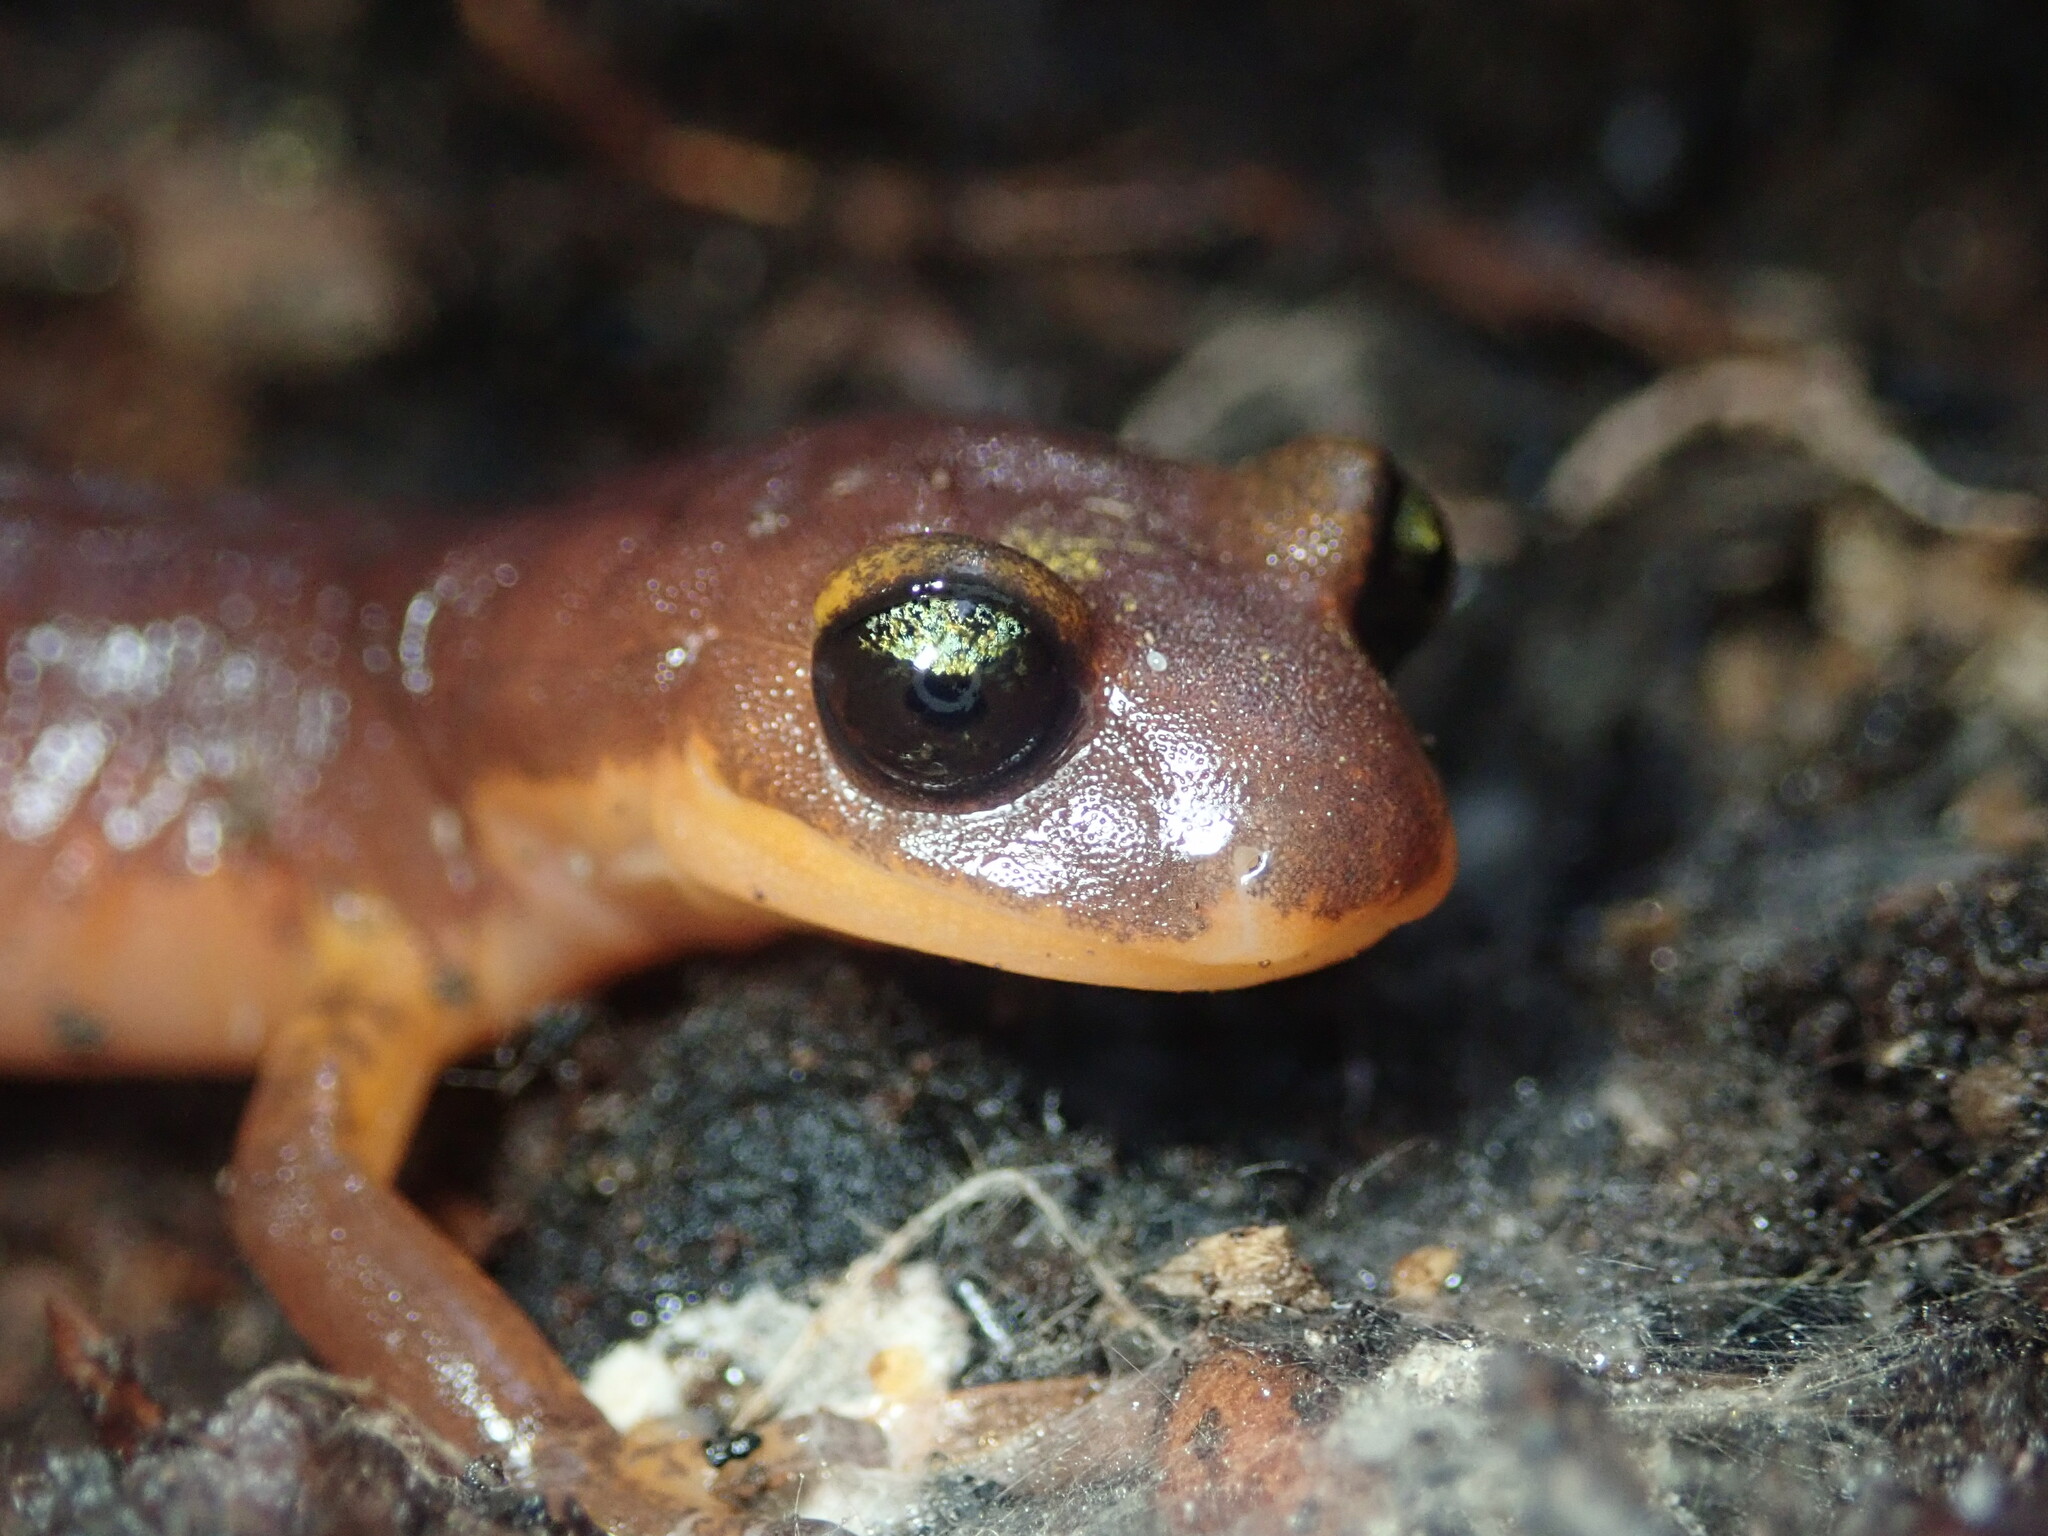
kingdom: Animalia
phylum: Chordata
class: Amphibia
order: Caudata
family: Plethodontidae
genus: Ensatina
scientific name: Ensatina eschscholtzii
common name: Ensatina
